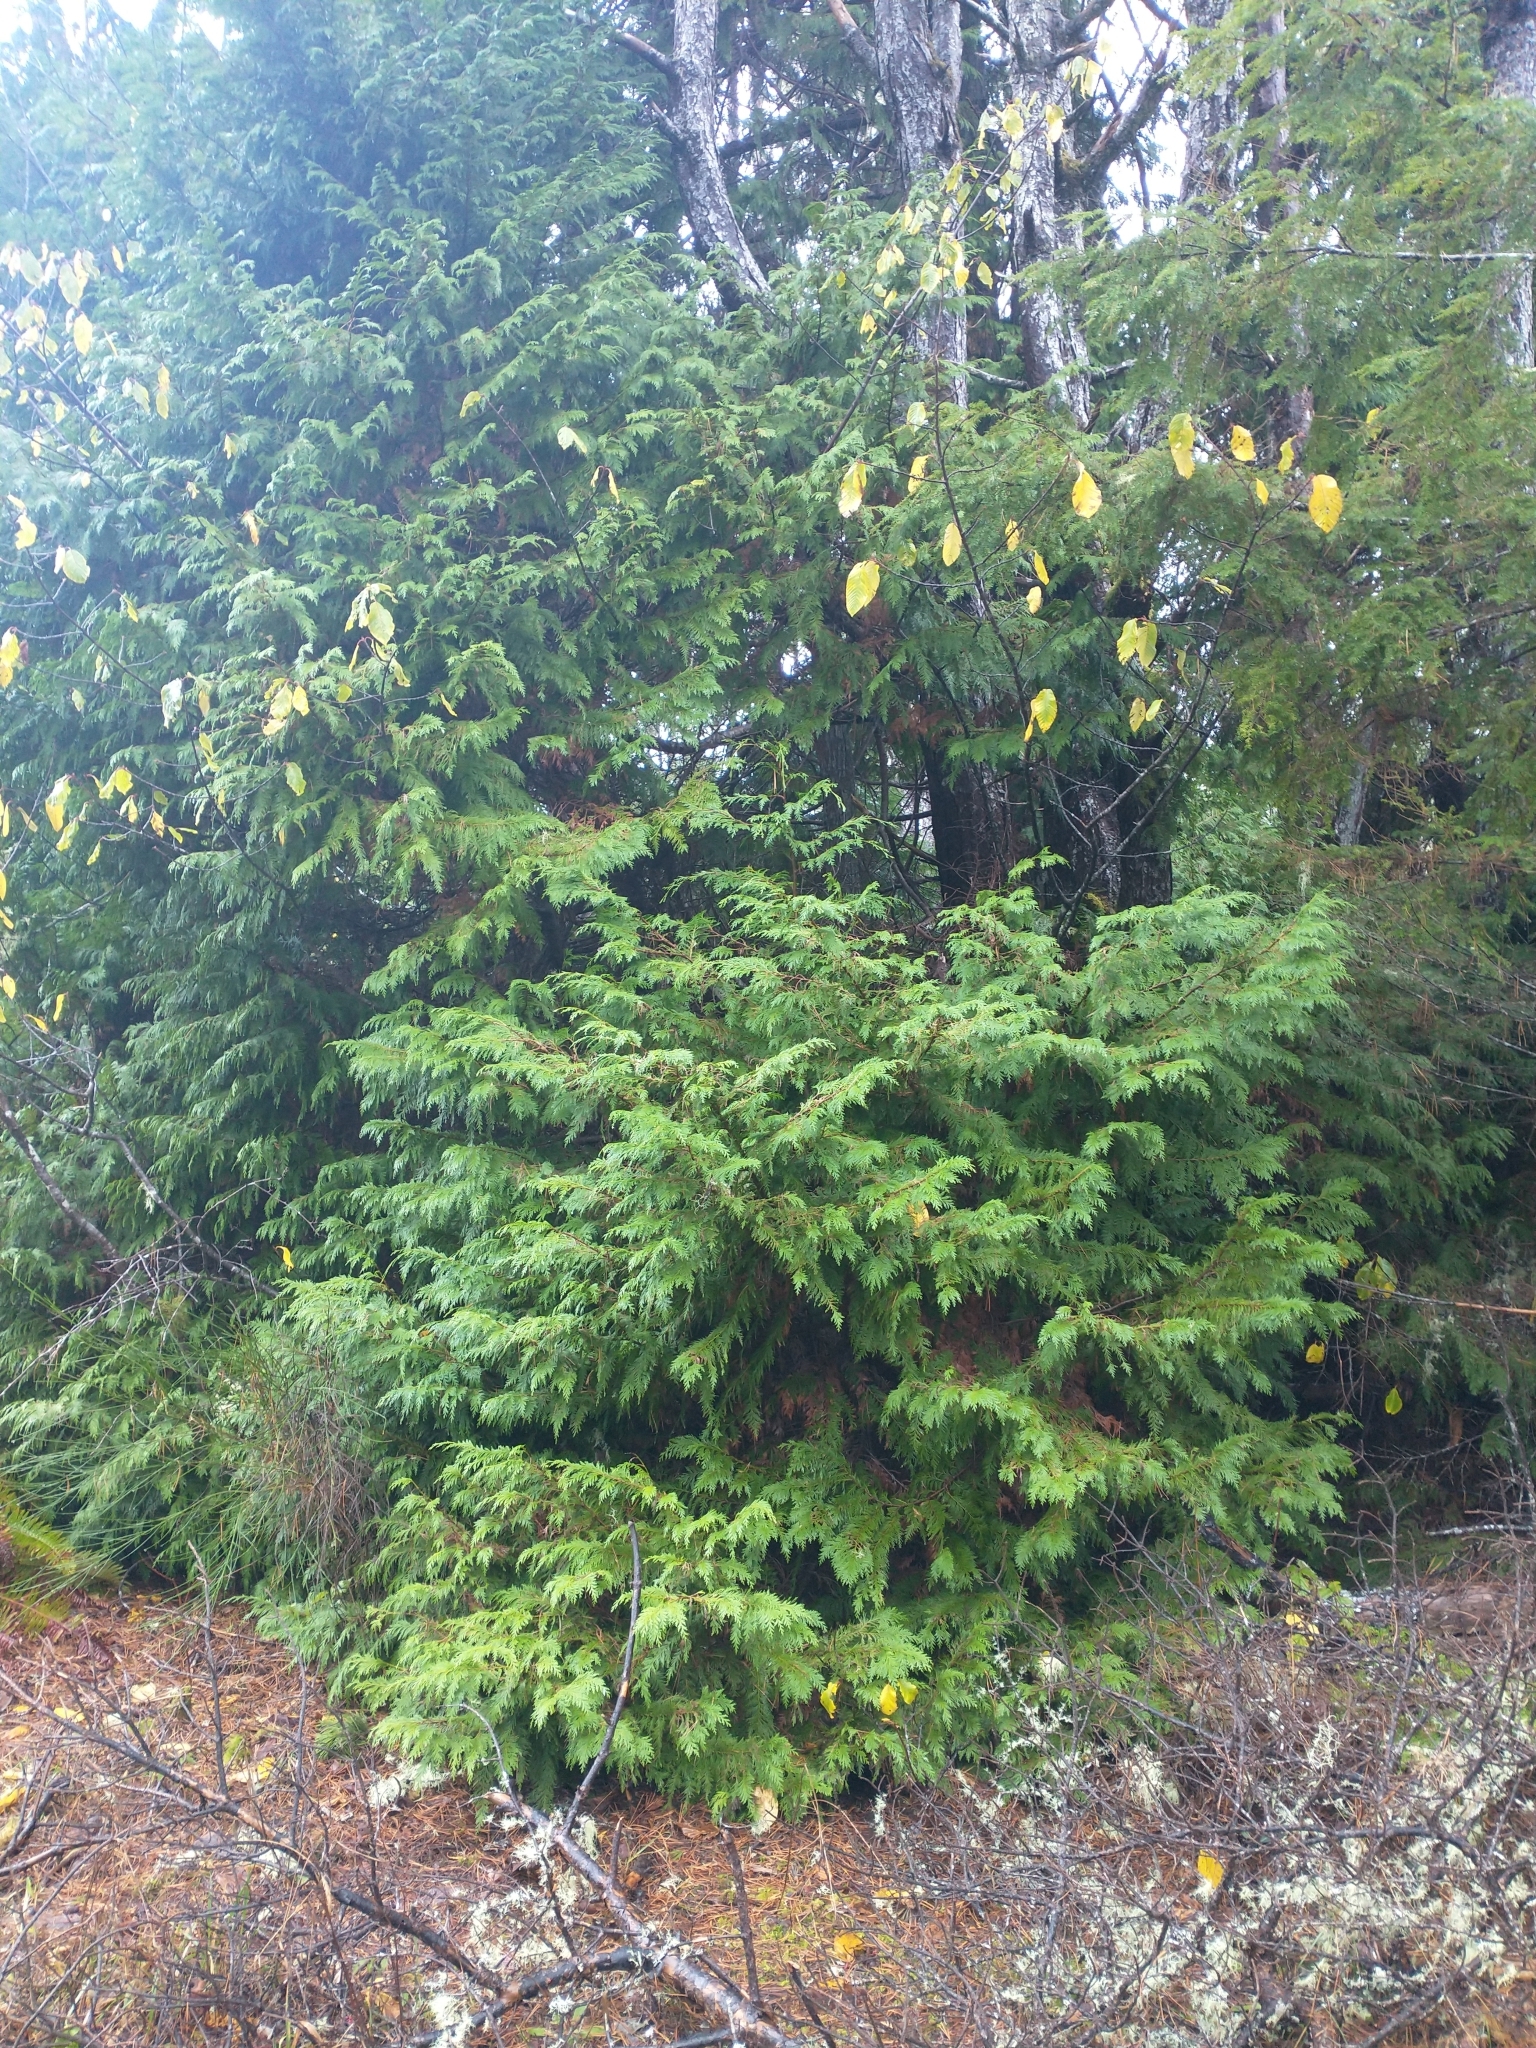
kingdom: Plantae
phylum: Tracheophyta
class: Pinopsida
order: Pinales
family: Cupressaceae
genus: Chamaecyparis
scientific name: Chamaecyparis lawsoniana
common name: Lawson's cypress
